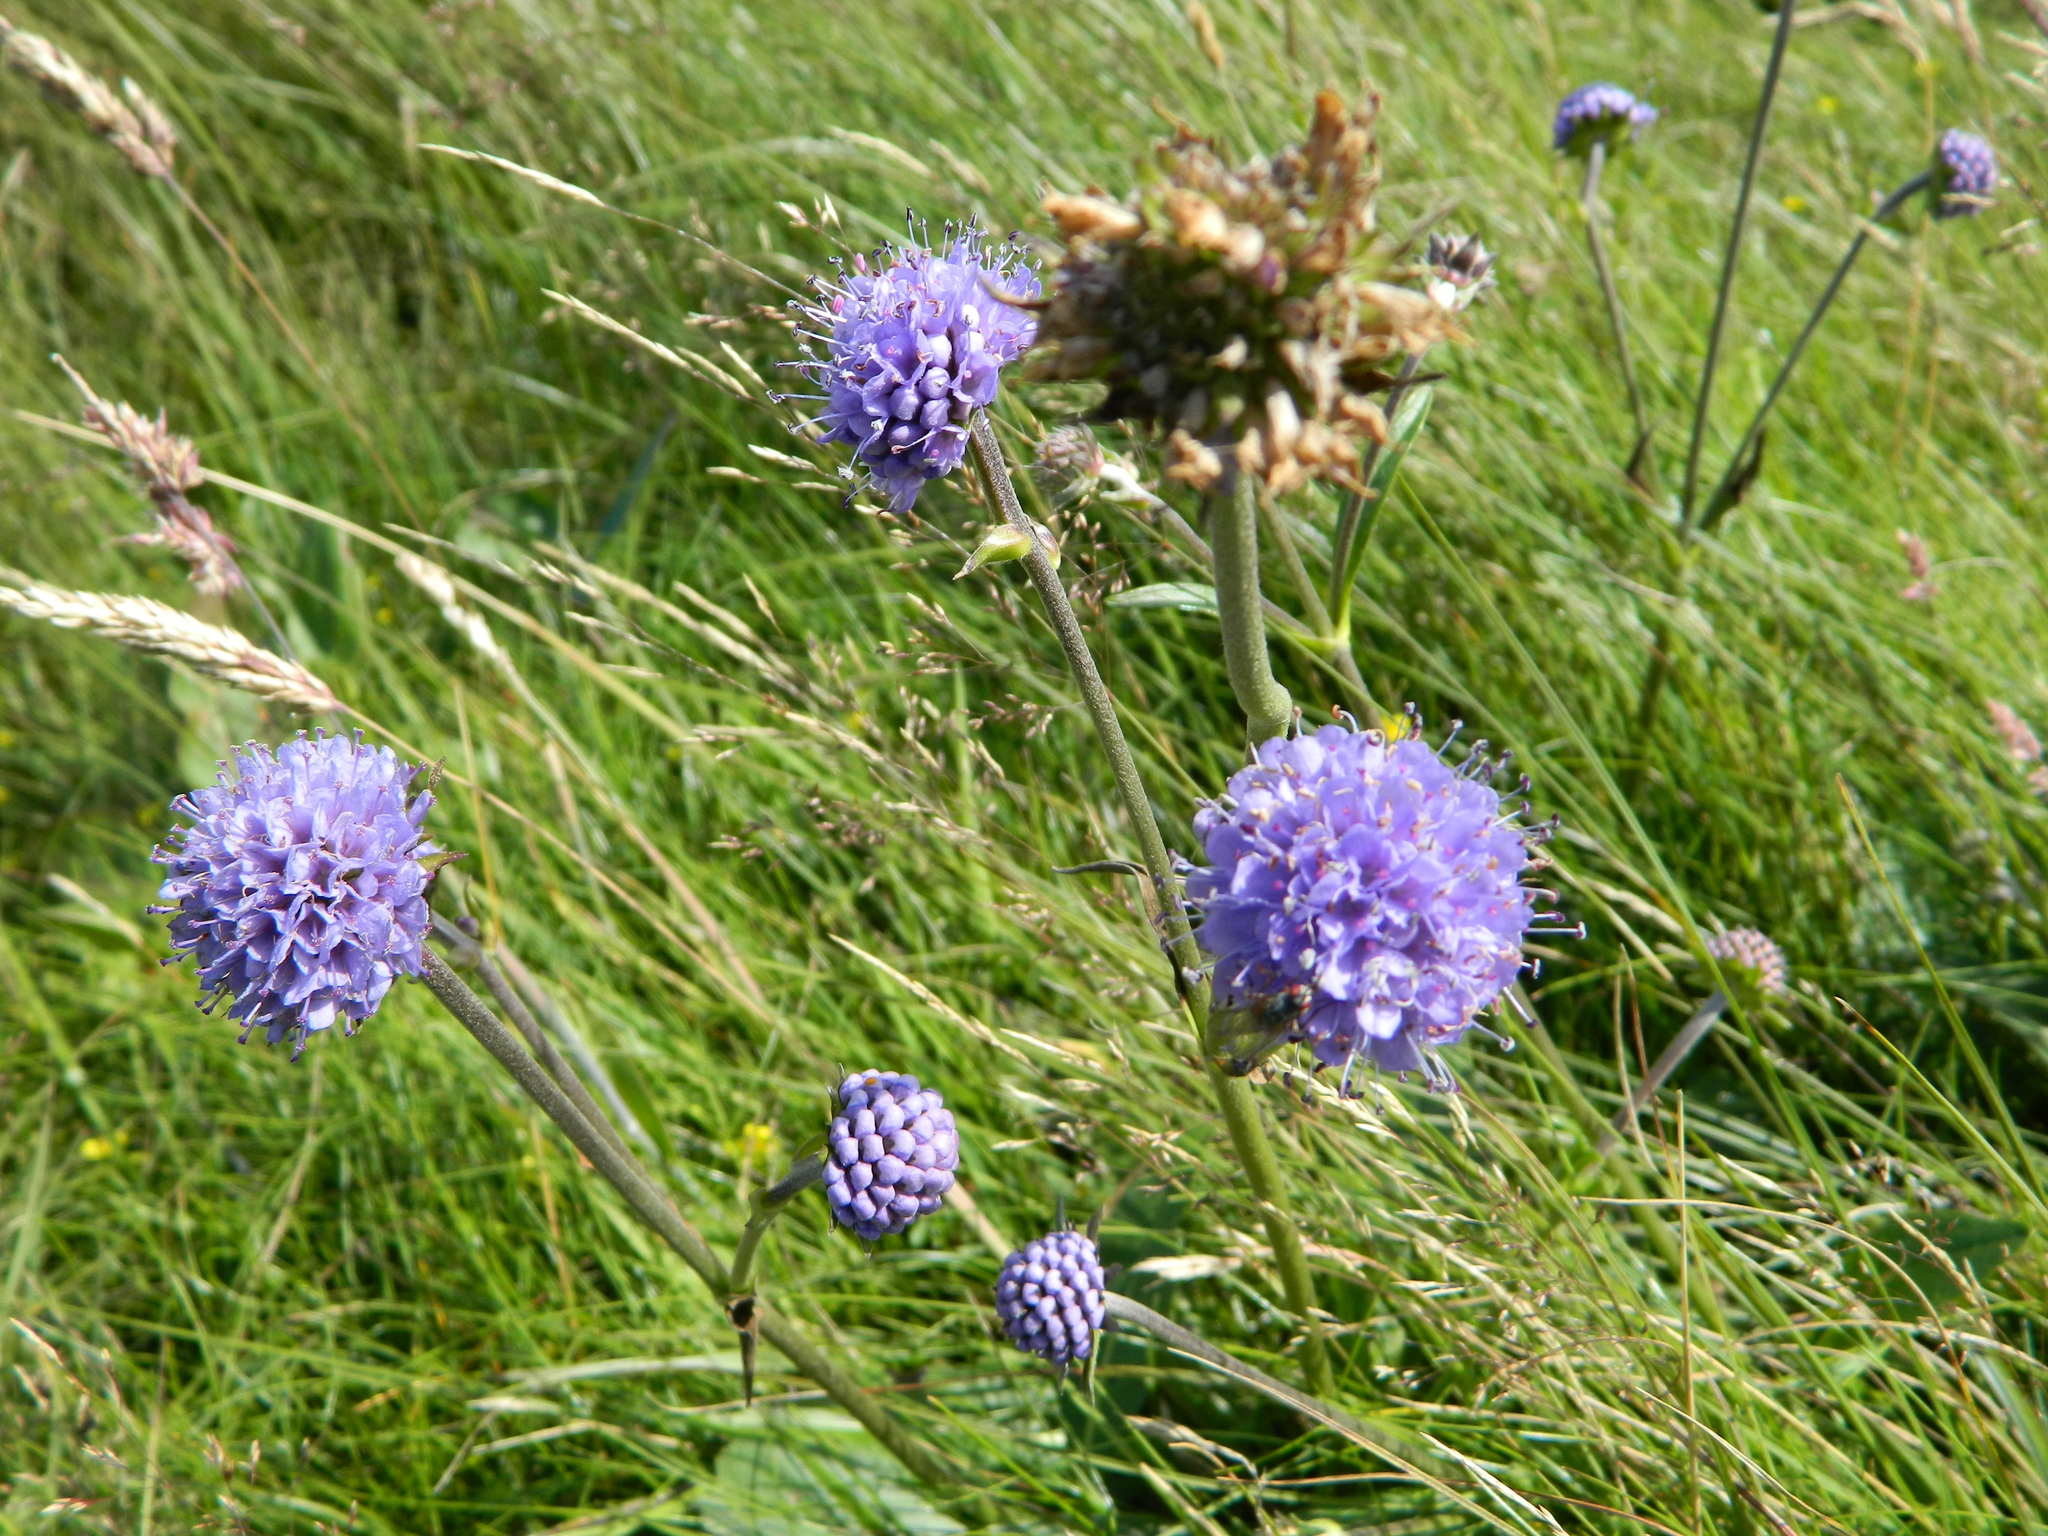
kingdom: Plantae
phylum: Tracheophyta
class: Magnoliopsida
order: Dipsacales
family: Caprifoliaceae
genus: Succisa
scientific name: Succisa pratensis
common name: Devil's-bit
